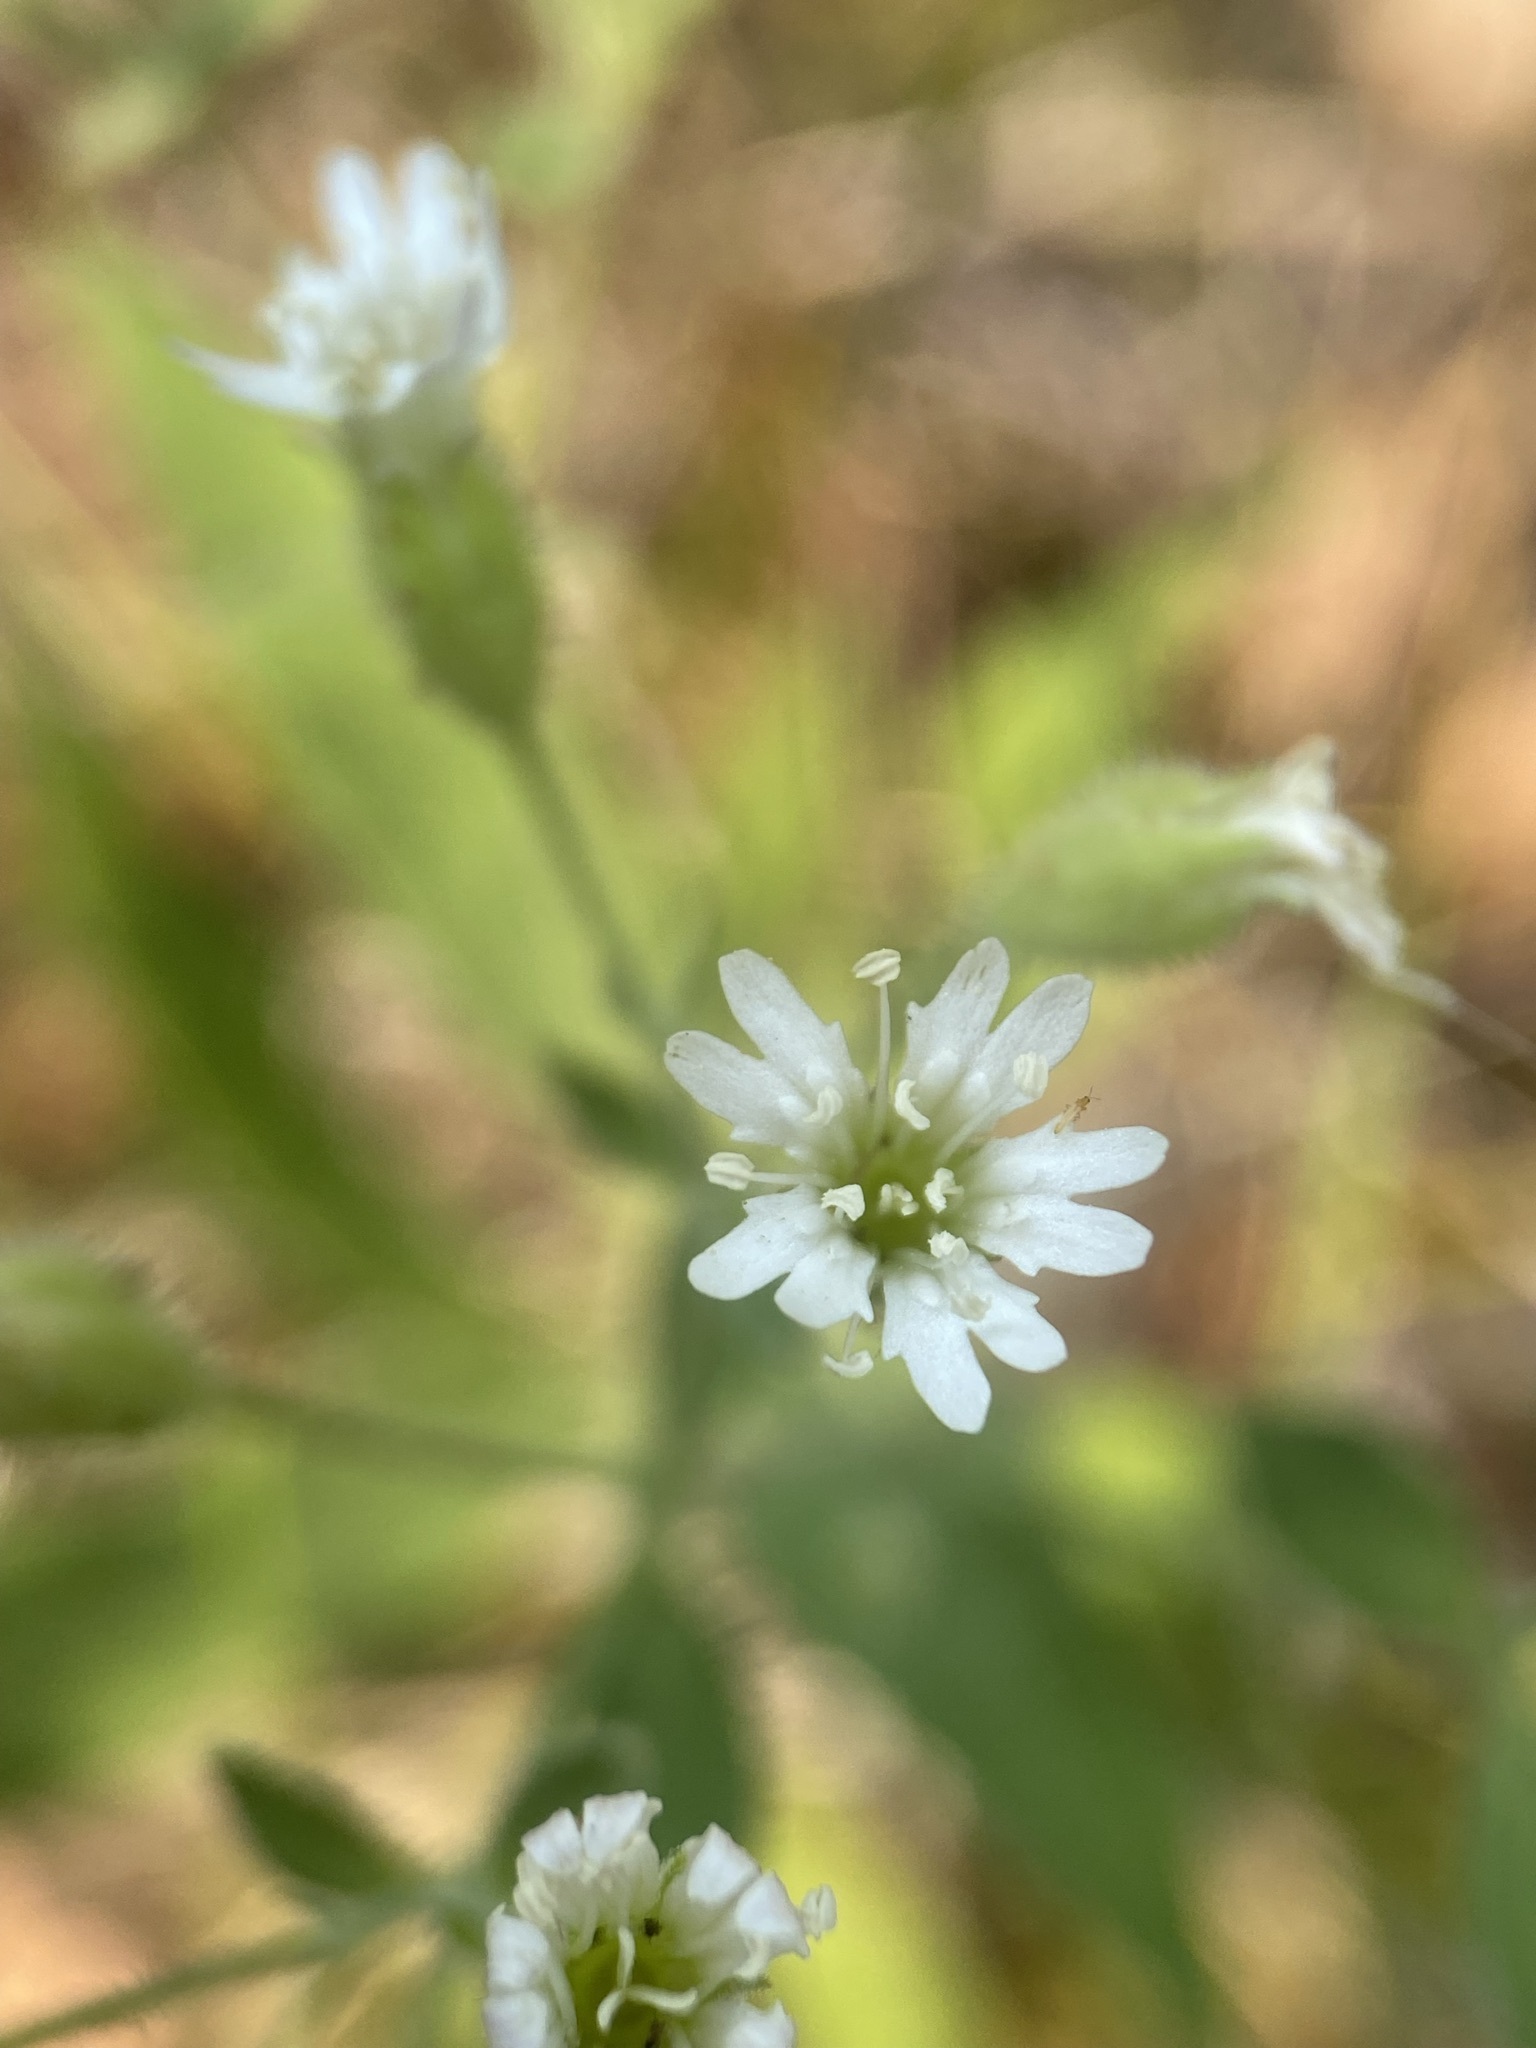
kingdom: Plantae
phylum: Tracheophyta
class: Magnoliopsida
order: Caryophyllales
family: Caryophyllaceae
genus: Silene
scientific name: Silene menziesii
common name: Menzies's catchfly
